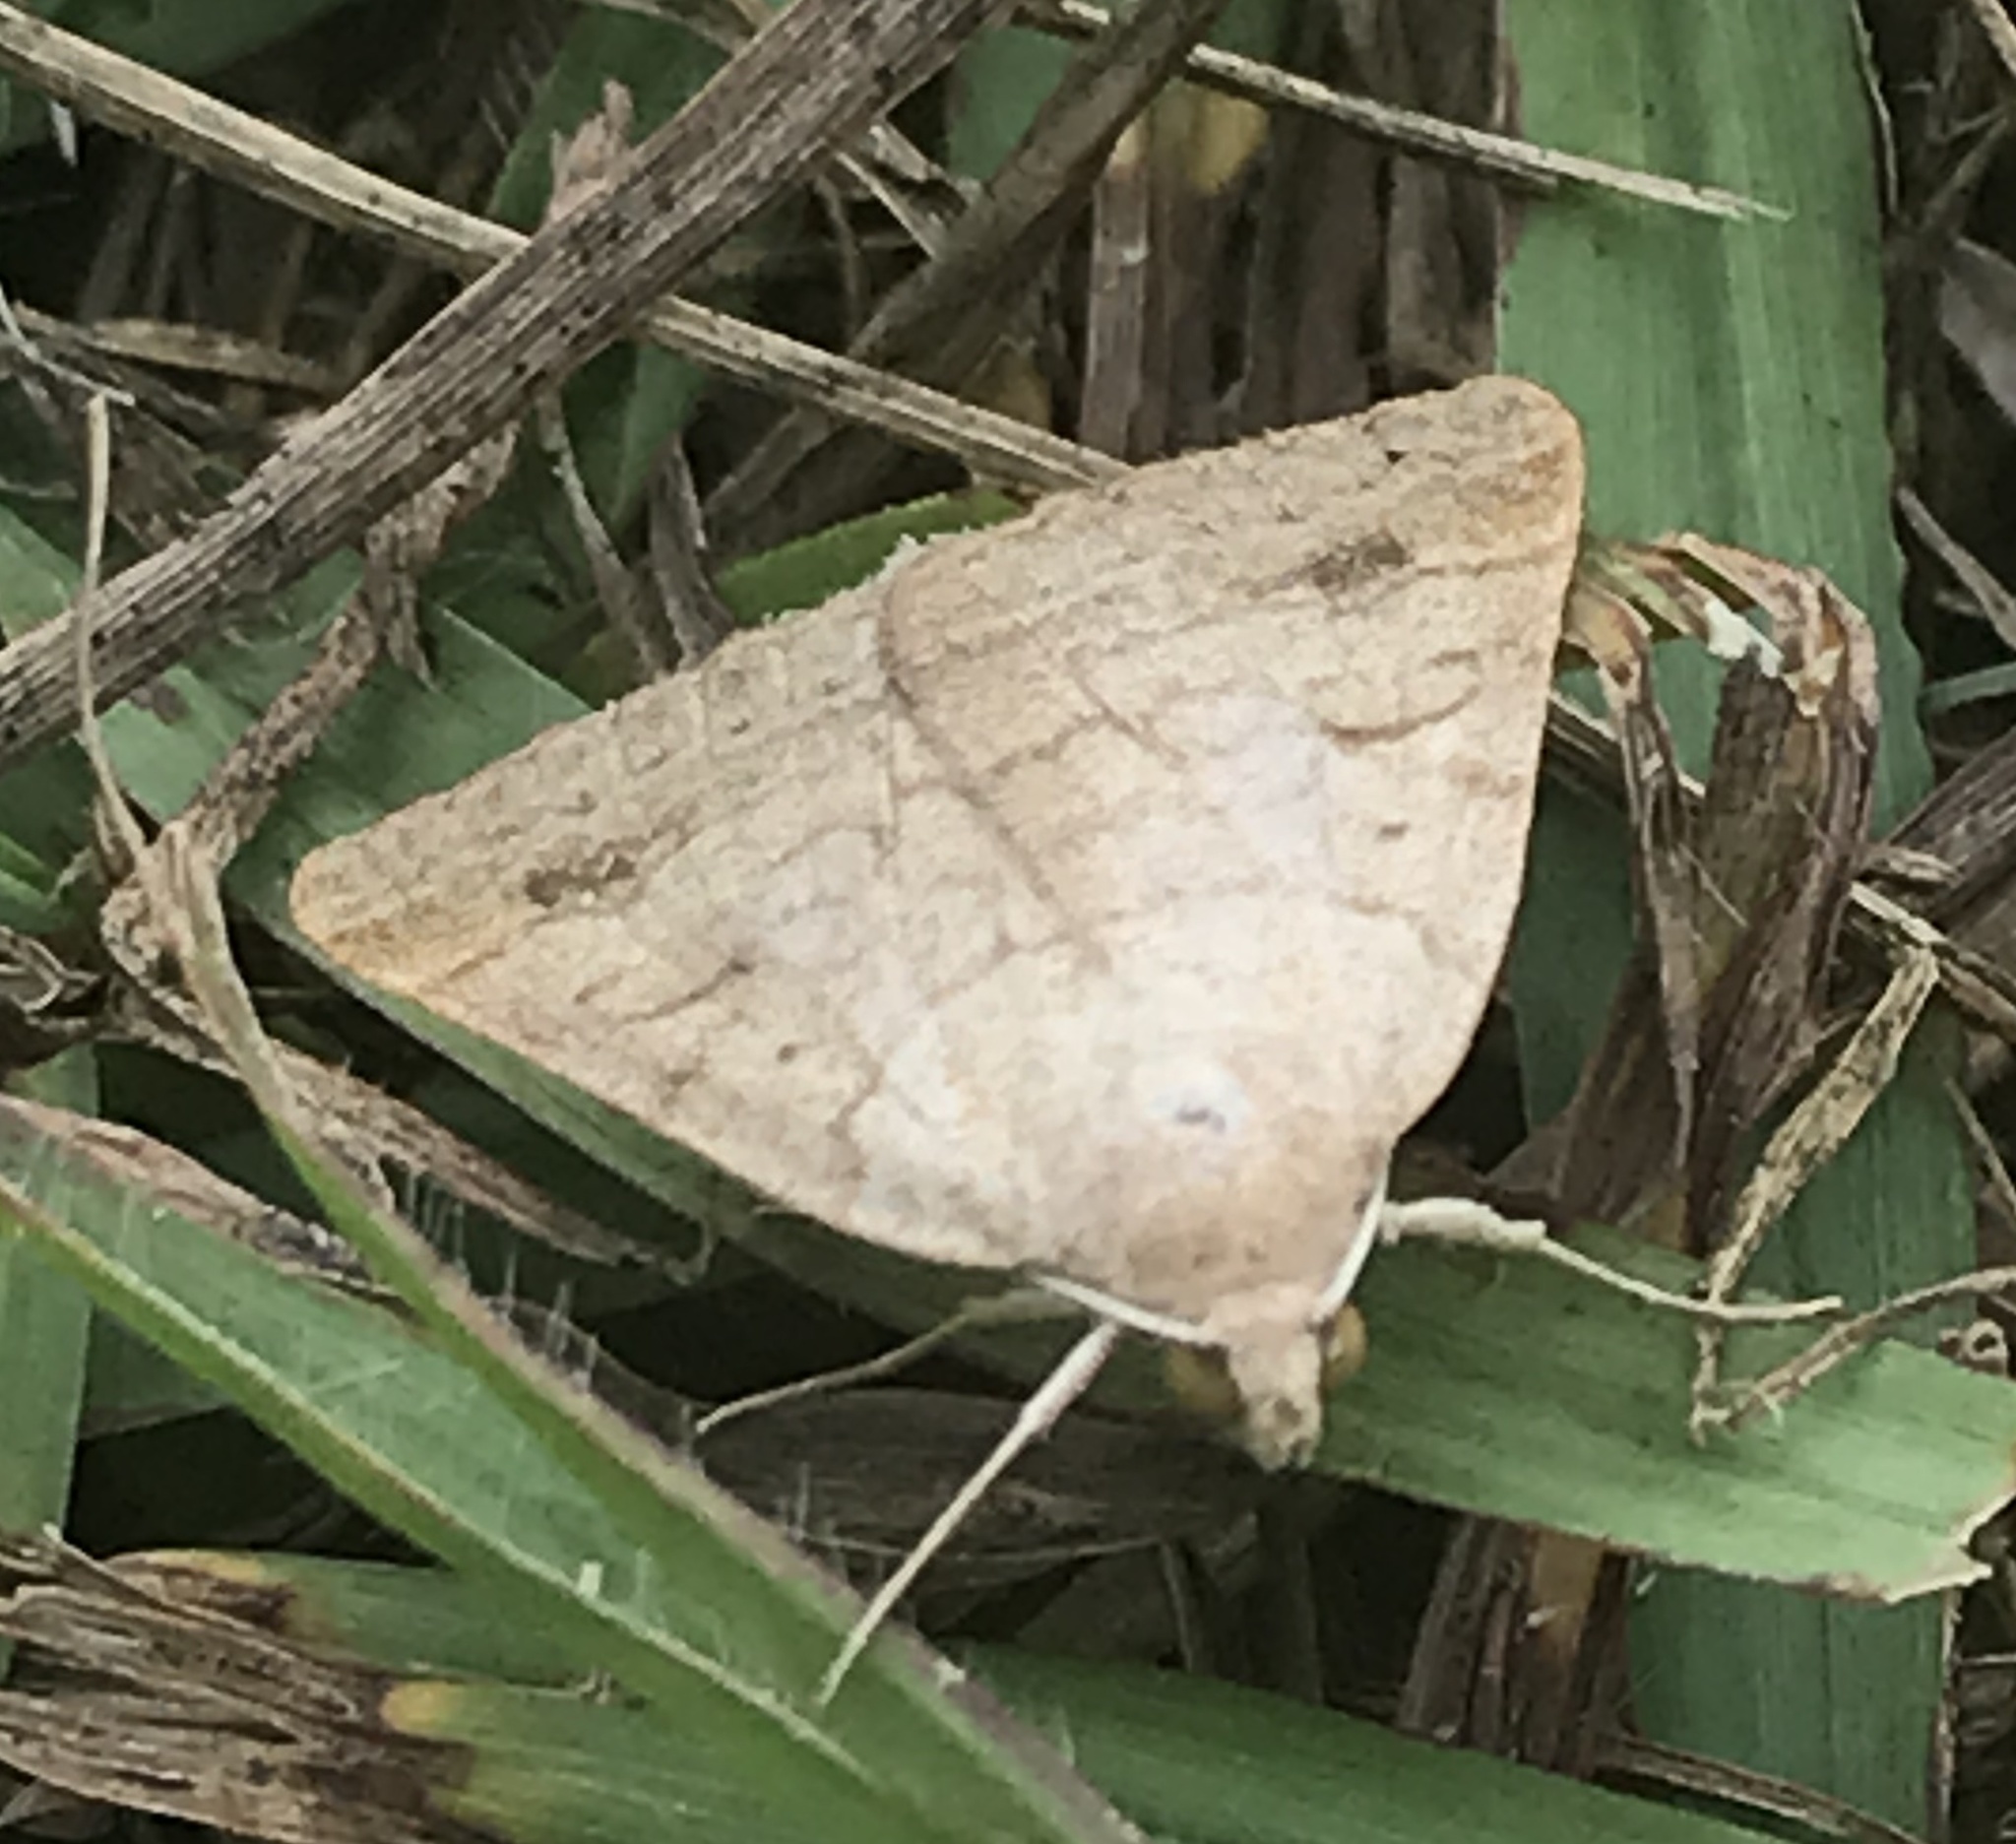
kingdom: Animalia
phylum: Arthropoda
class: Insecta
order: Lepidoptera
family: Erebidae
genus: Caenurgia
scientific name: Caenurgia chloropha
